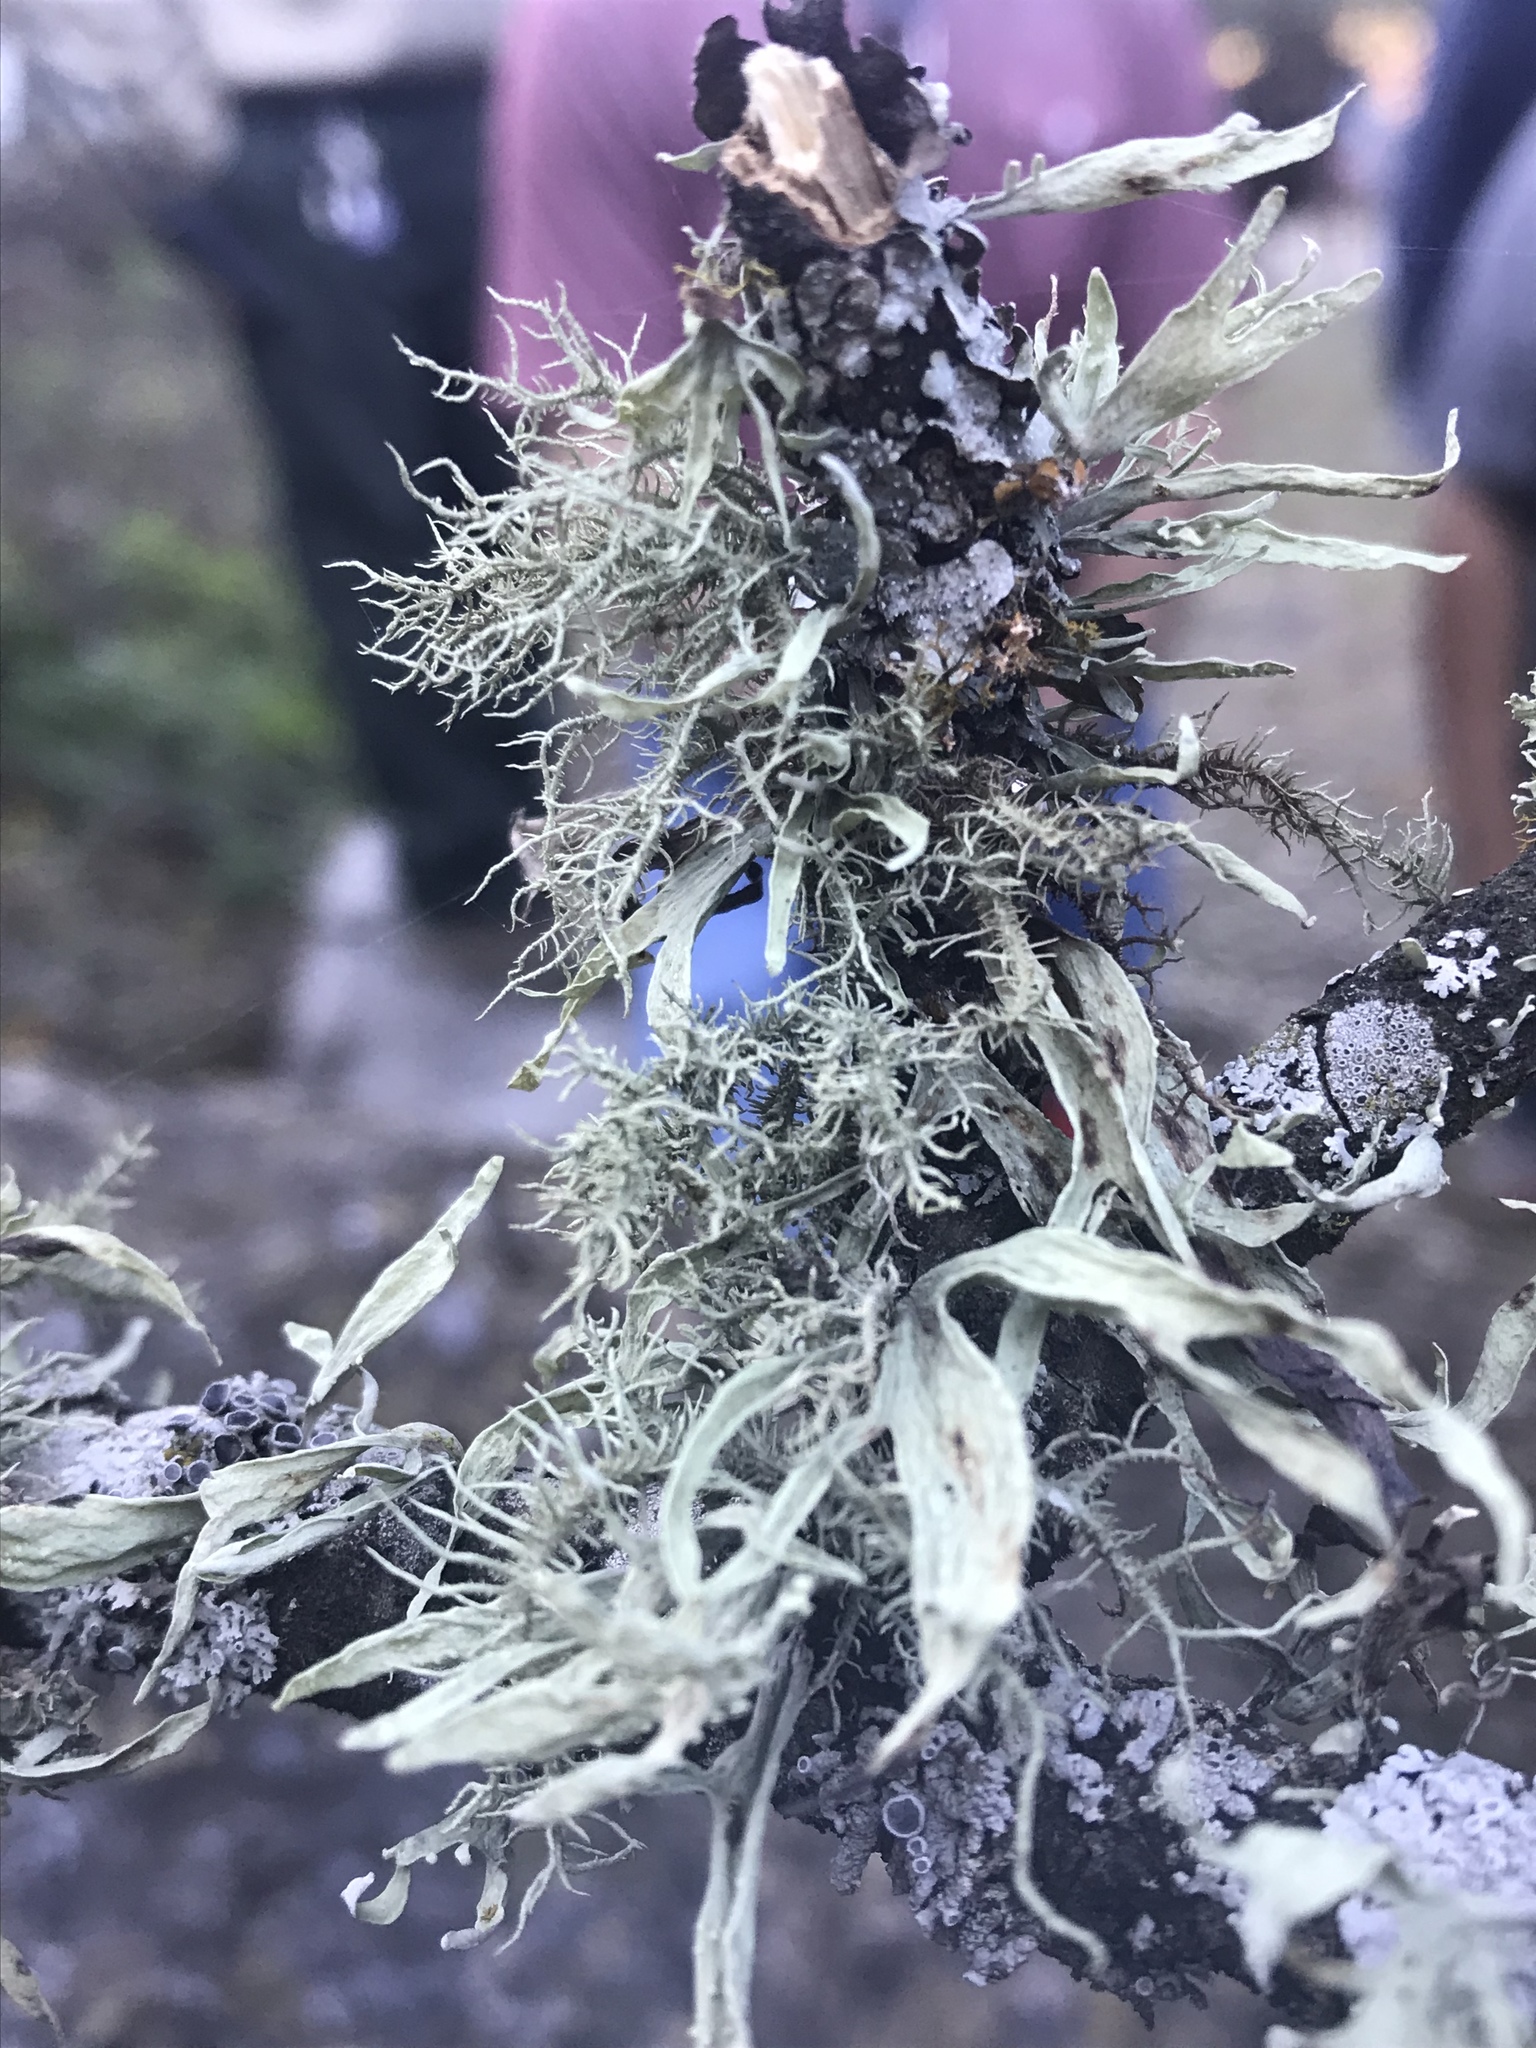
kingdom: Fungi
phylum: Ascomycota
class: Lecanoromycetes
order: Lecanorales
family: Ramalinaceae
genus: Ramalina
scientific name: Ramalina celastri
